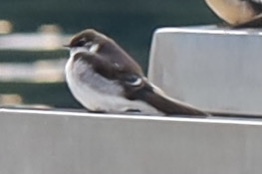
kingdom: Animalia
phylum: Chordata
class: Aves
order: Passeriformes
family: Hirundinidae
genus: Tachycineta
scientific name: Tachycineta thalassina
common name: Violet-green swallow
